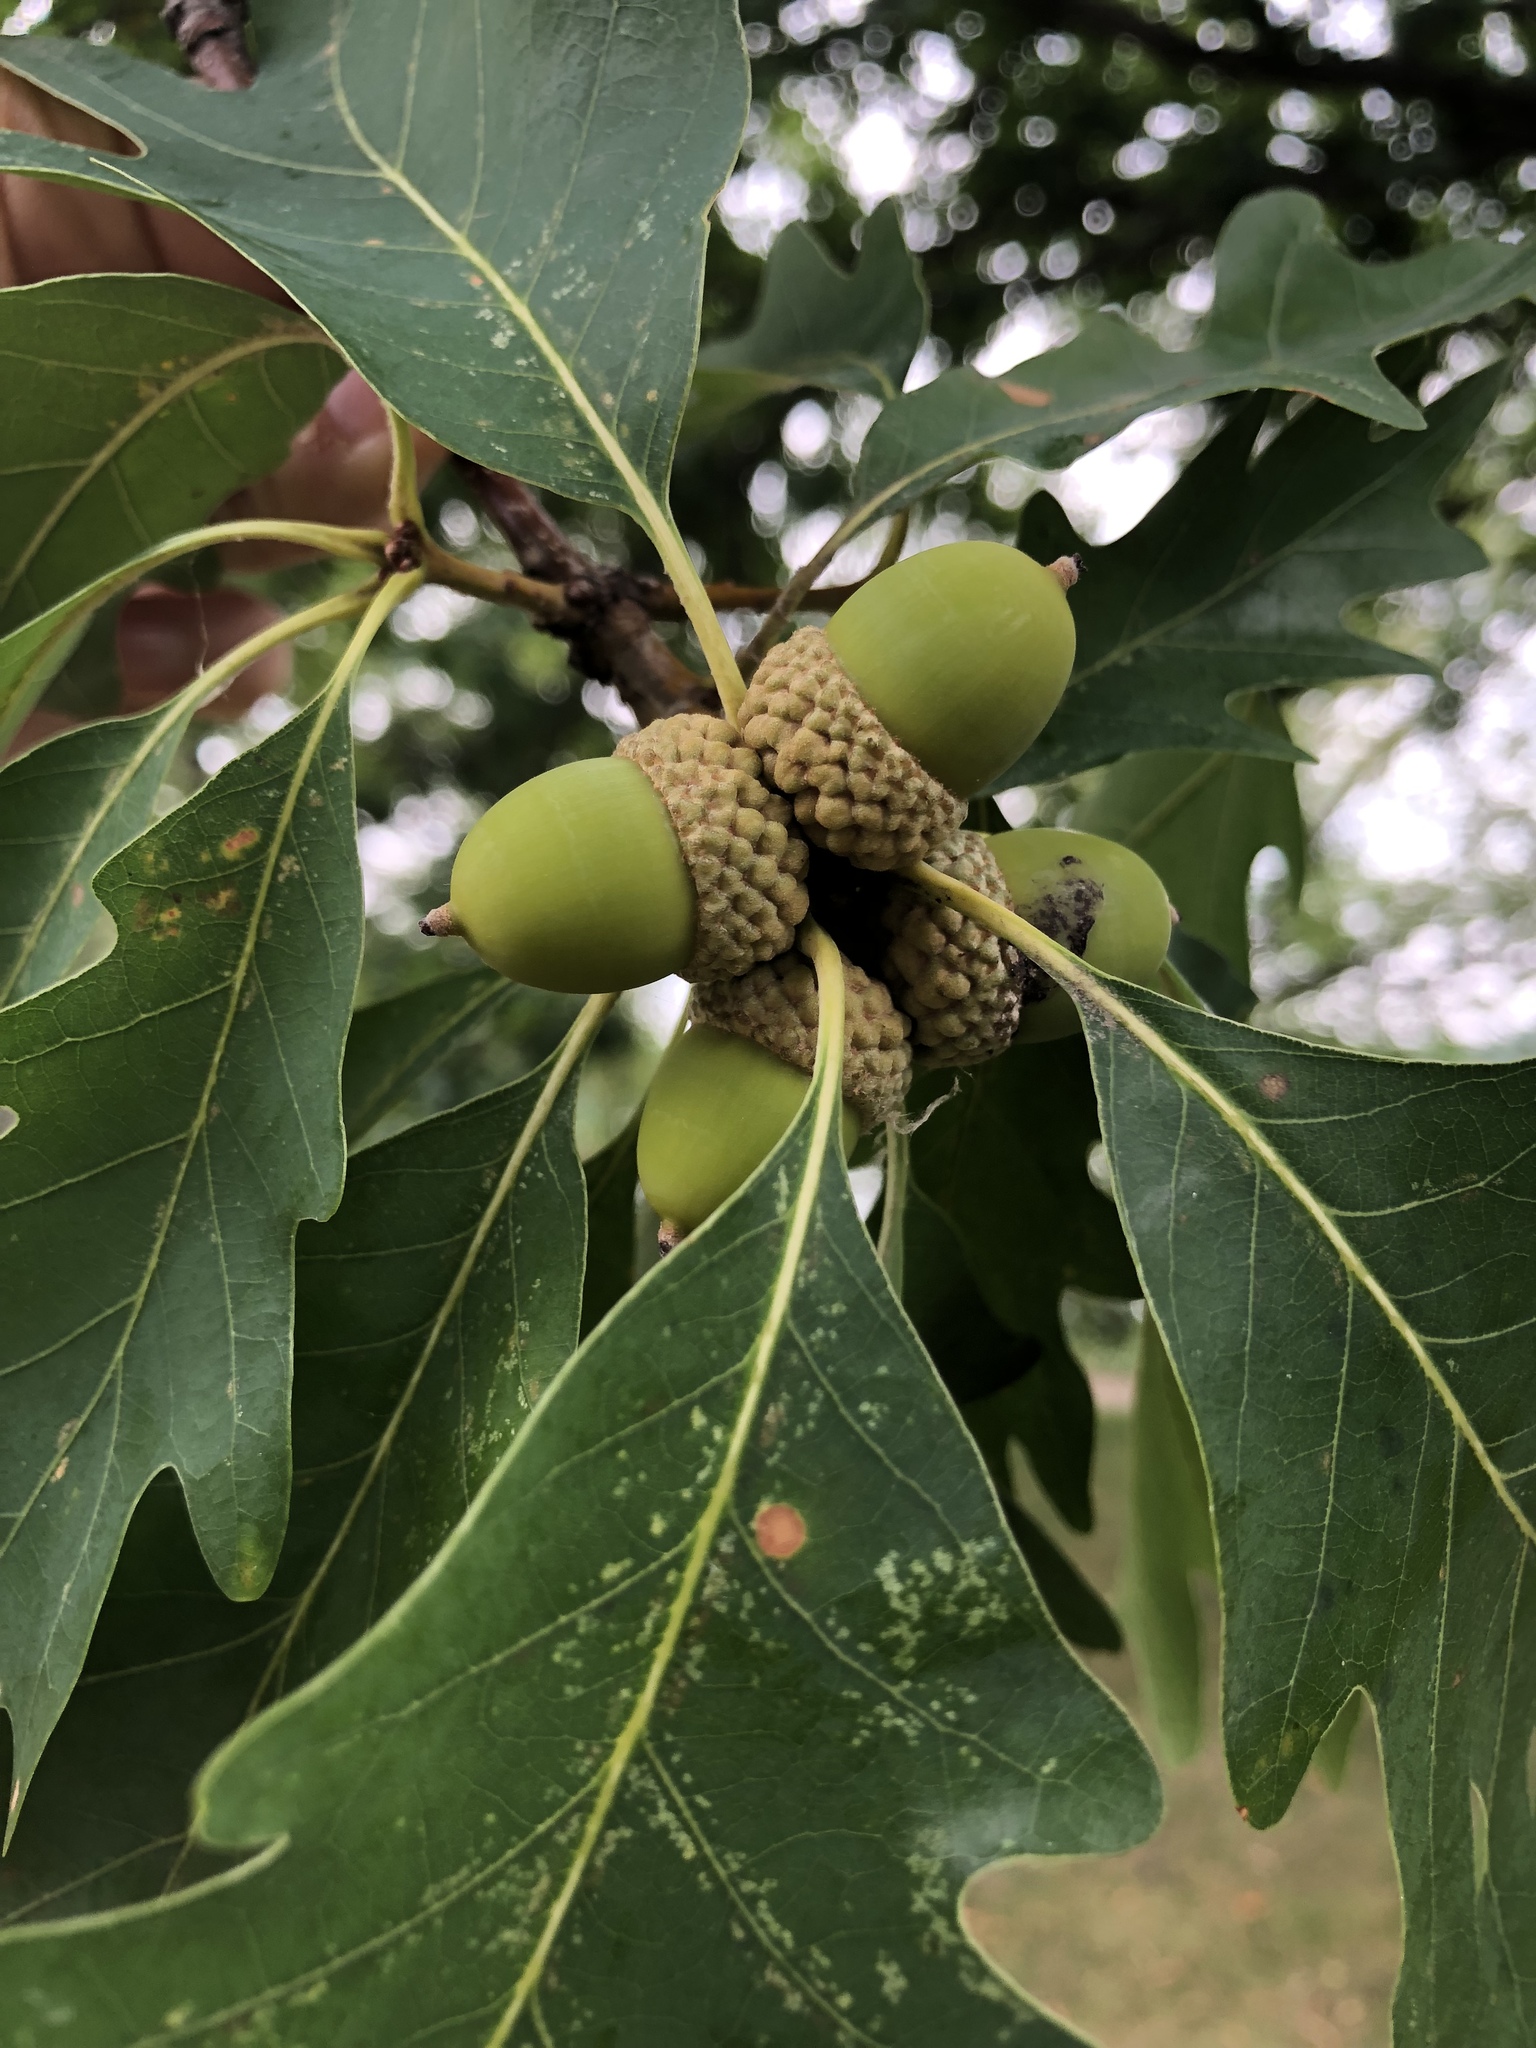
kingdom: Plantae
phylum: Tracheophyta
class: Magnoliopsida
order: Fagales
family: Fagaceae
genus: Quercus
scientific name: Quercus alba
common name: White oak
